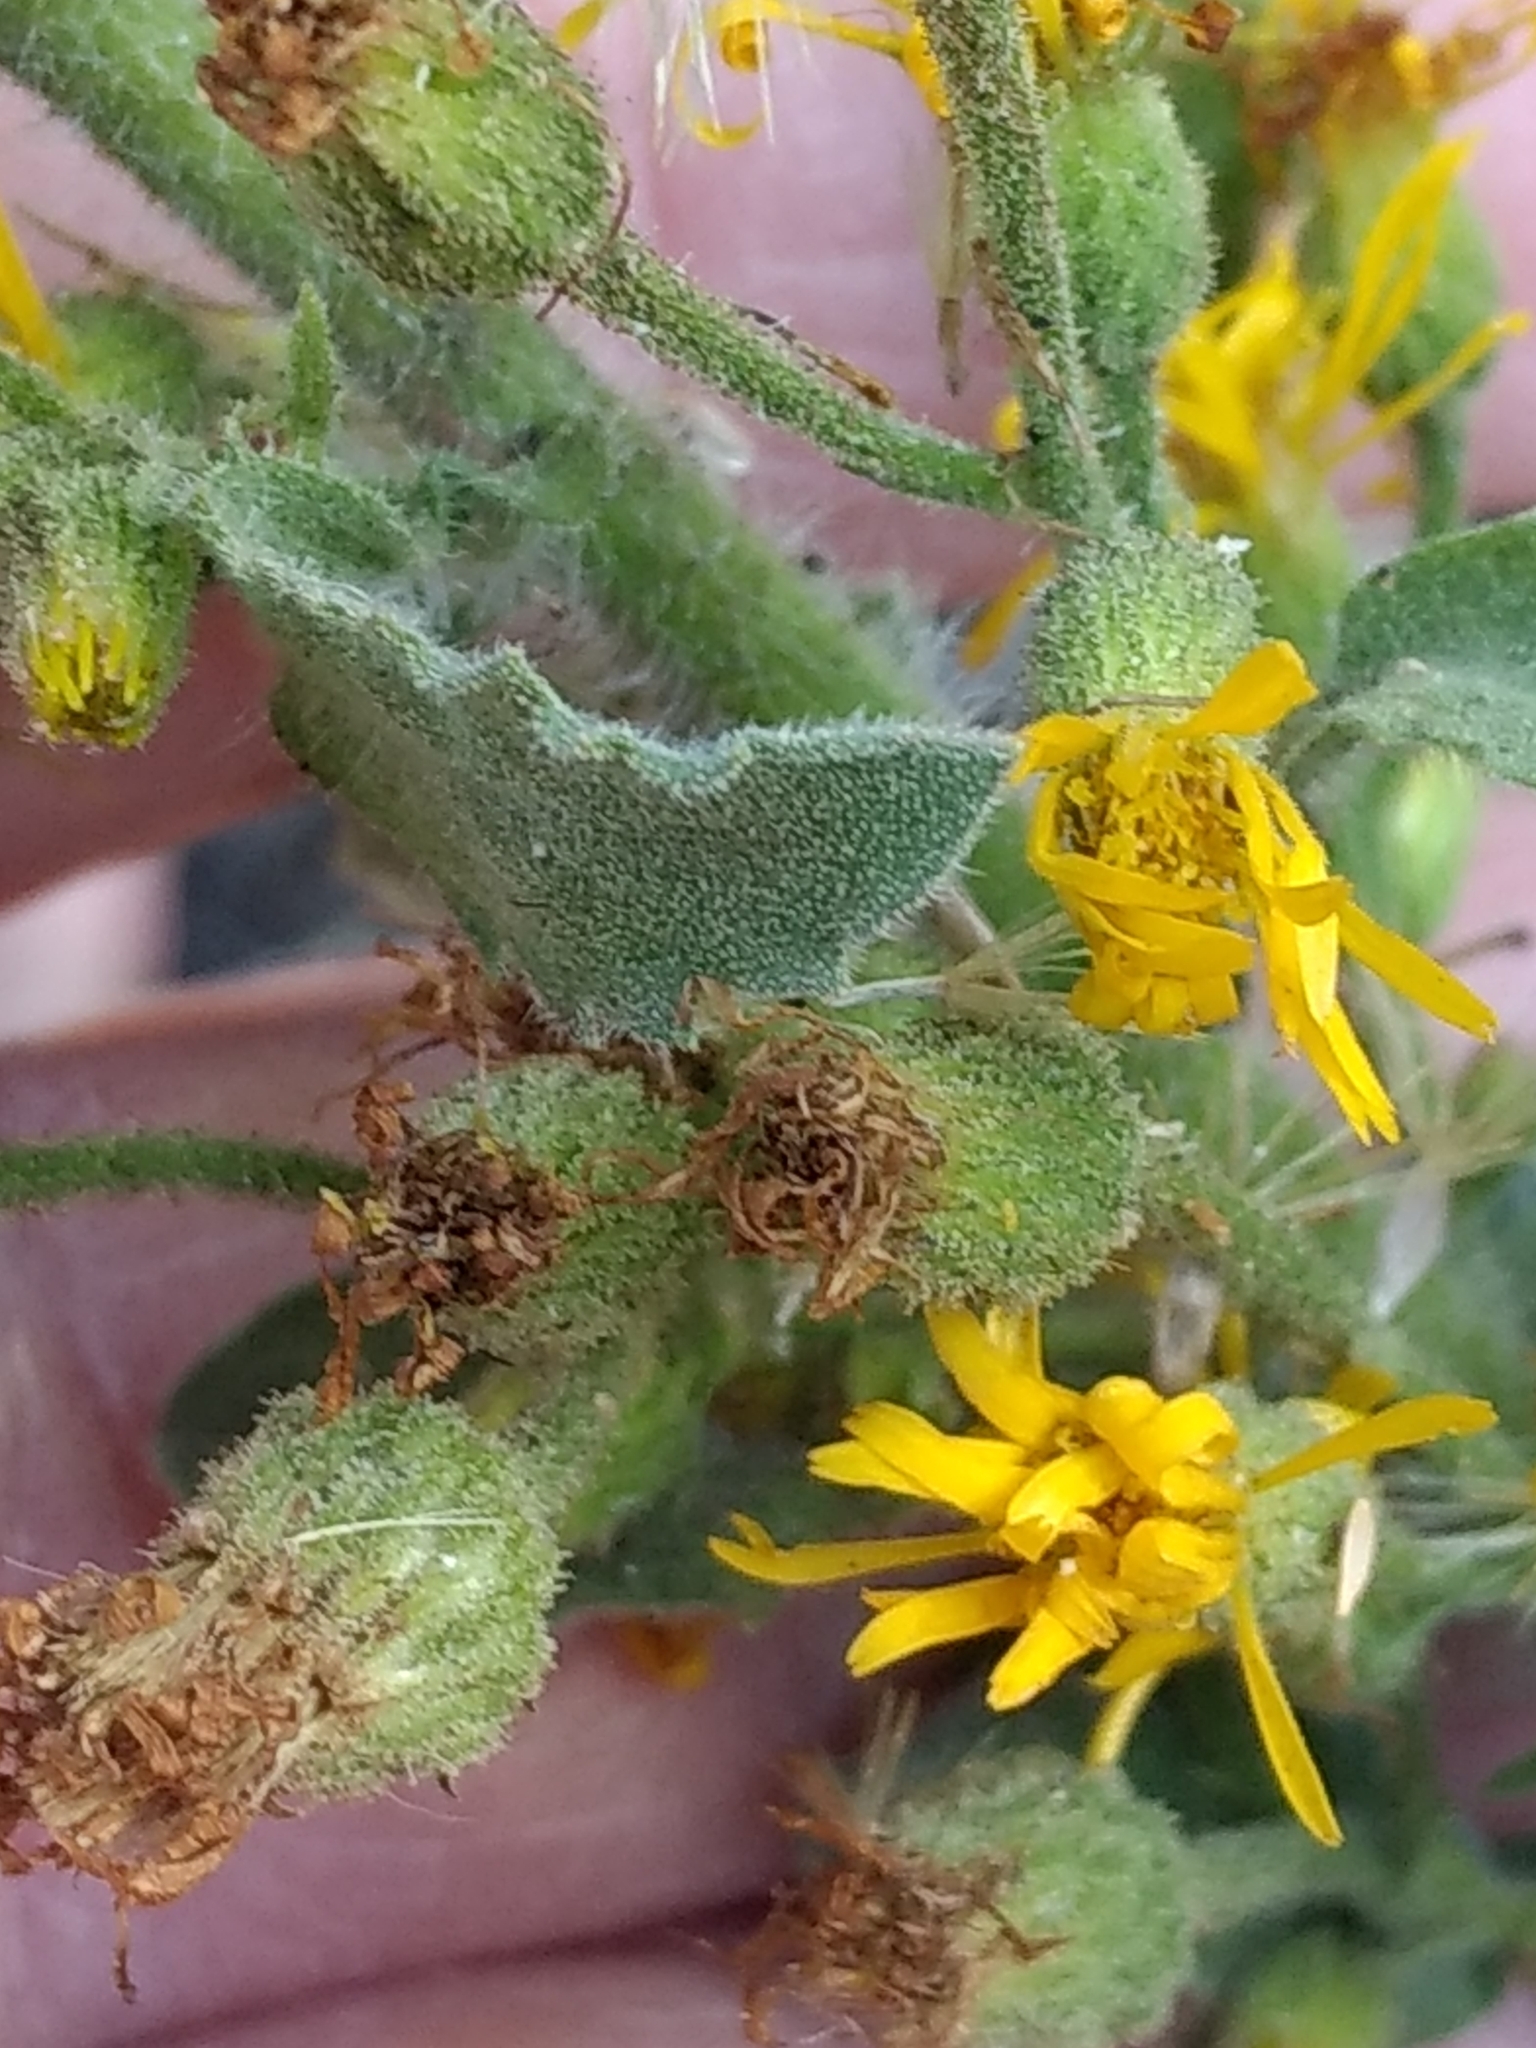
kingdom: Plantae
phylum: Tracheophyta
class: Magnoliopsida
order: Asterales
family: Asteraceae
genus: Heterotheca
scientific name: Heterotheca grandiflora
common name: Telegraphweed
